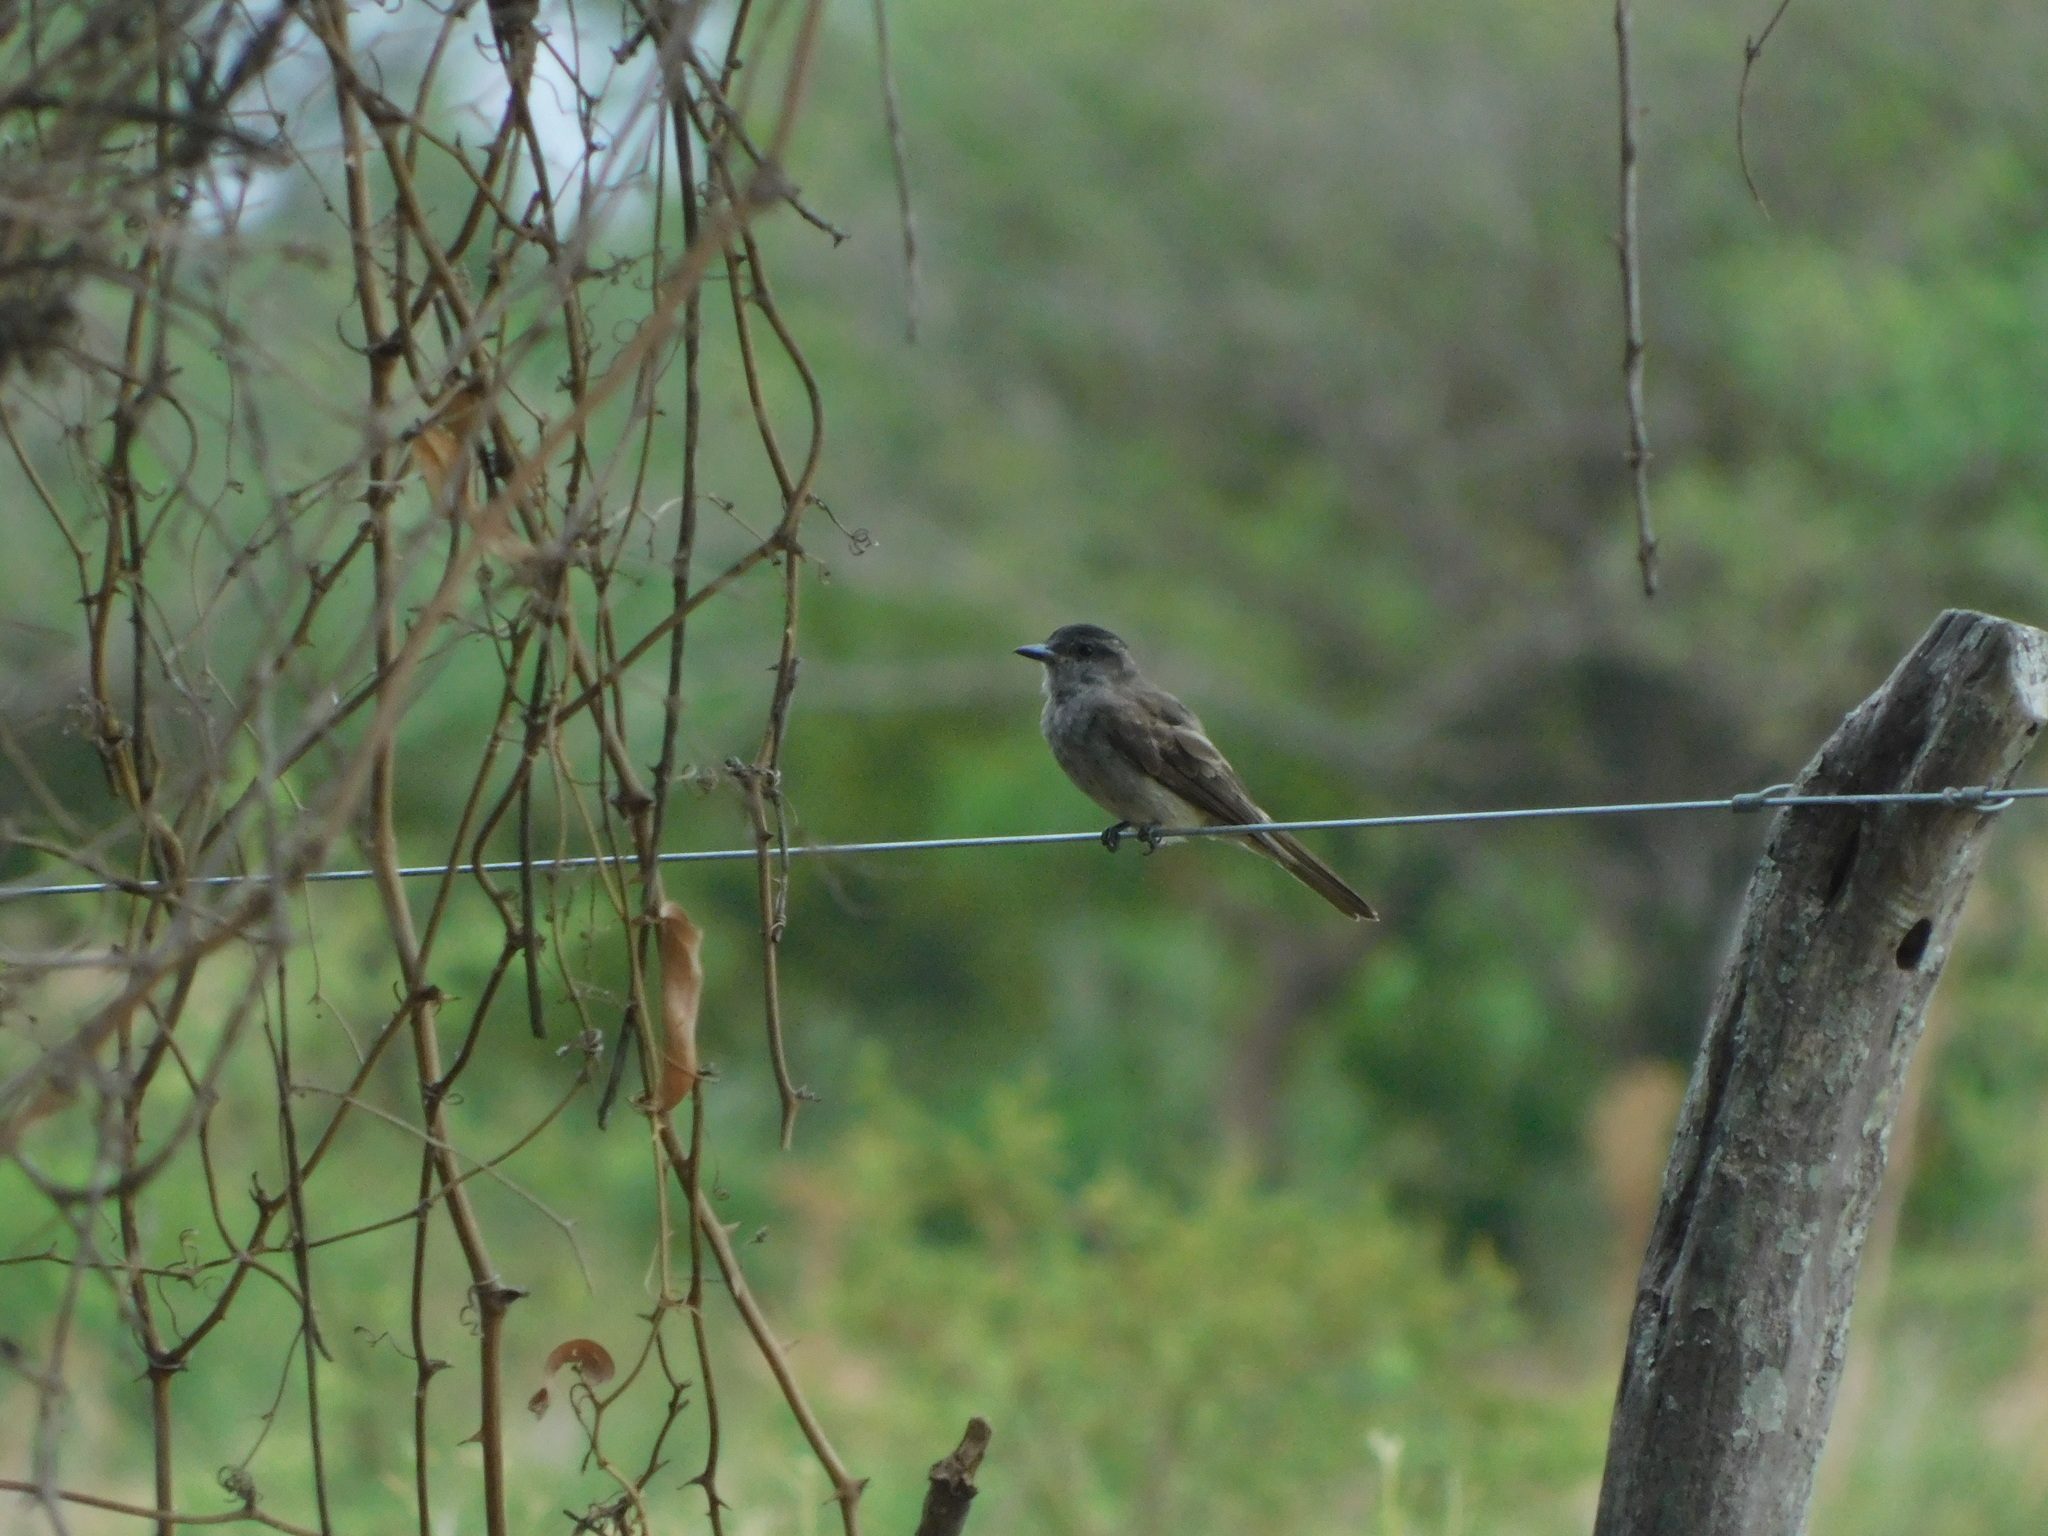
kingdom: Animalia
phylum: Chordata
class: Aves
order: Passeriformes
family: Tyrannidae
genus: Empidonomus
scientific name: Empidonomus aurantioatrocristatus
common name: Crowned slaty flycatcher
